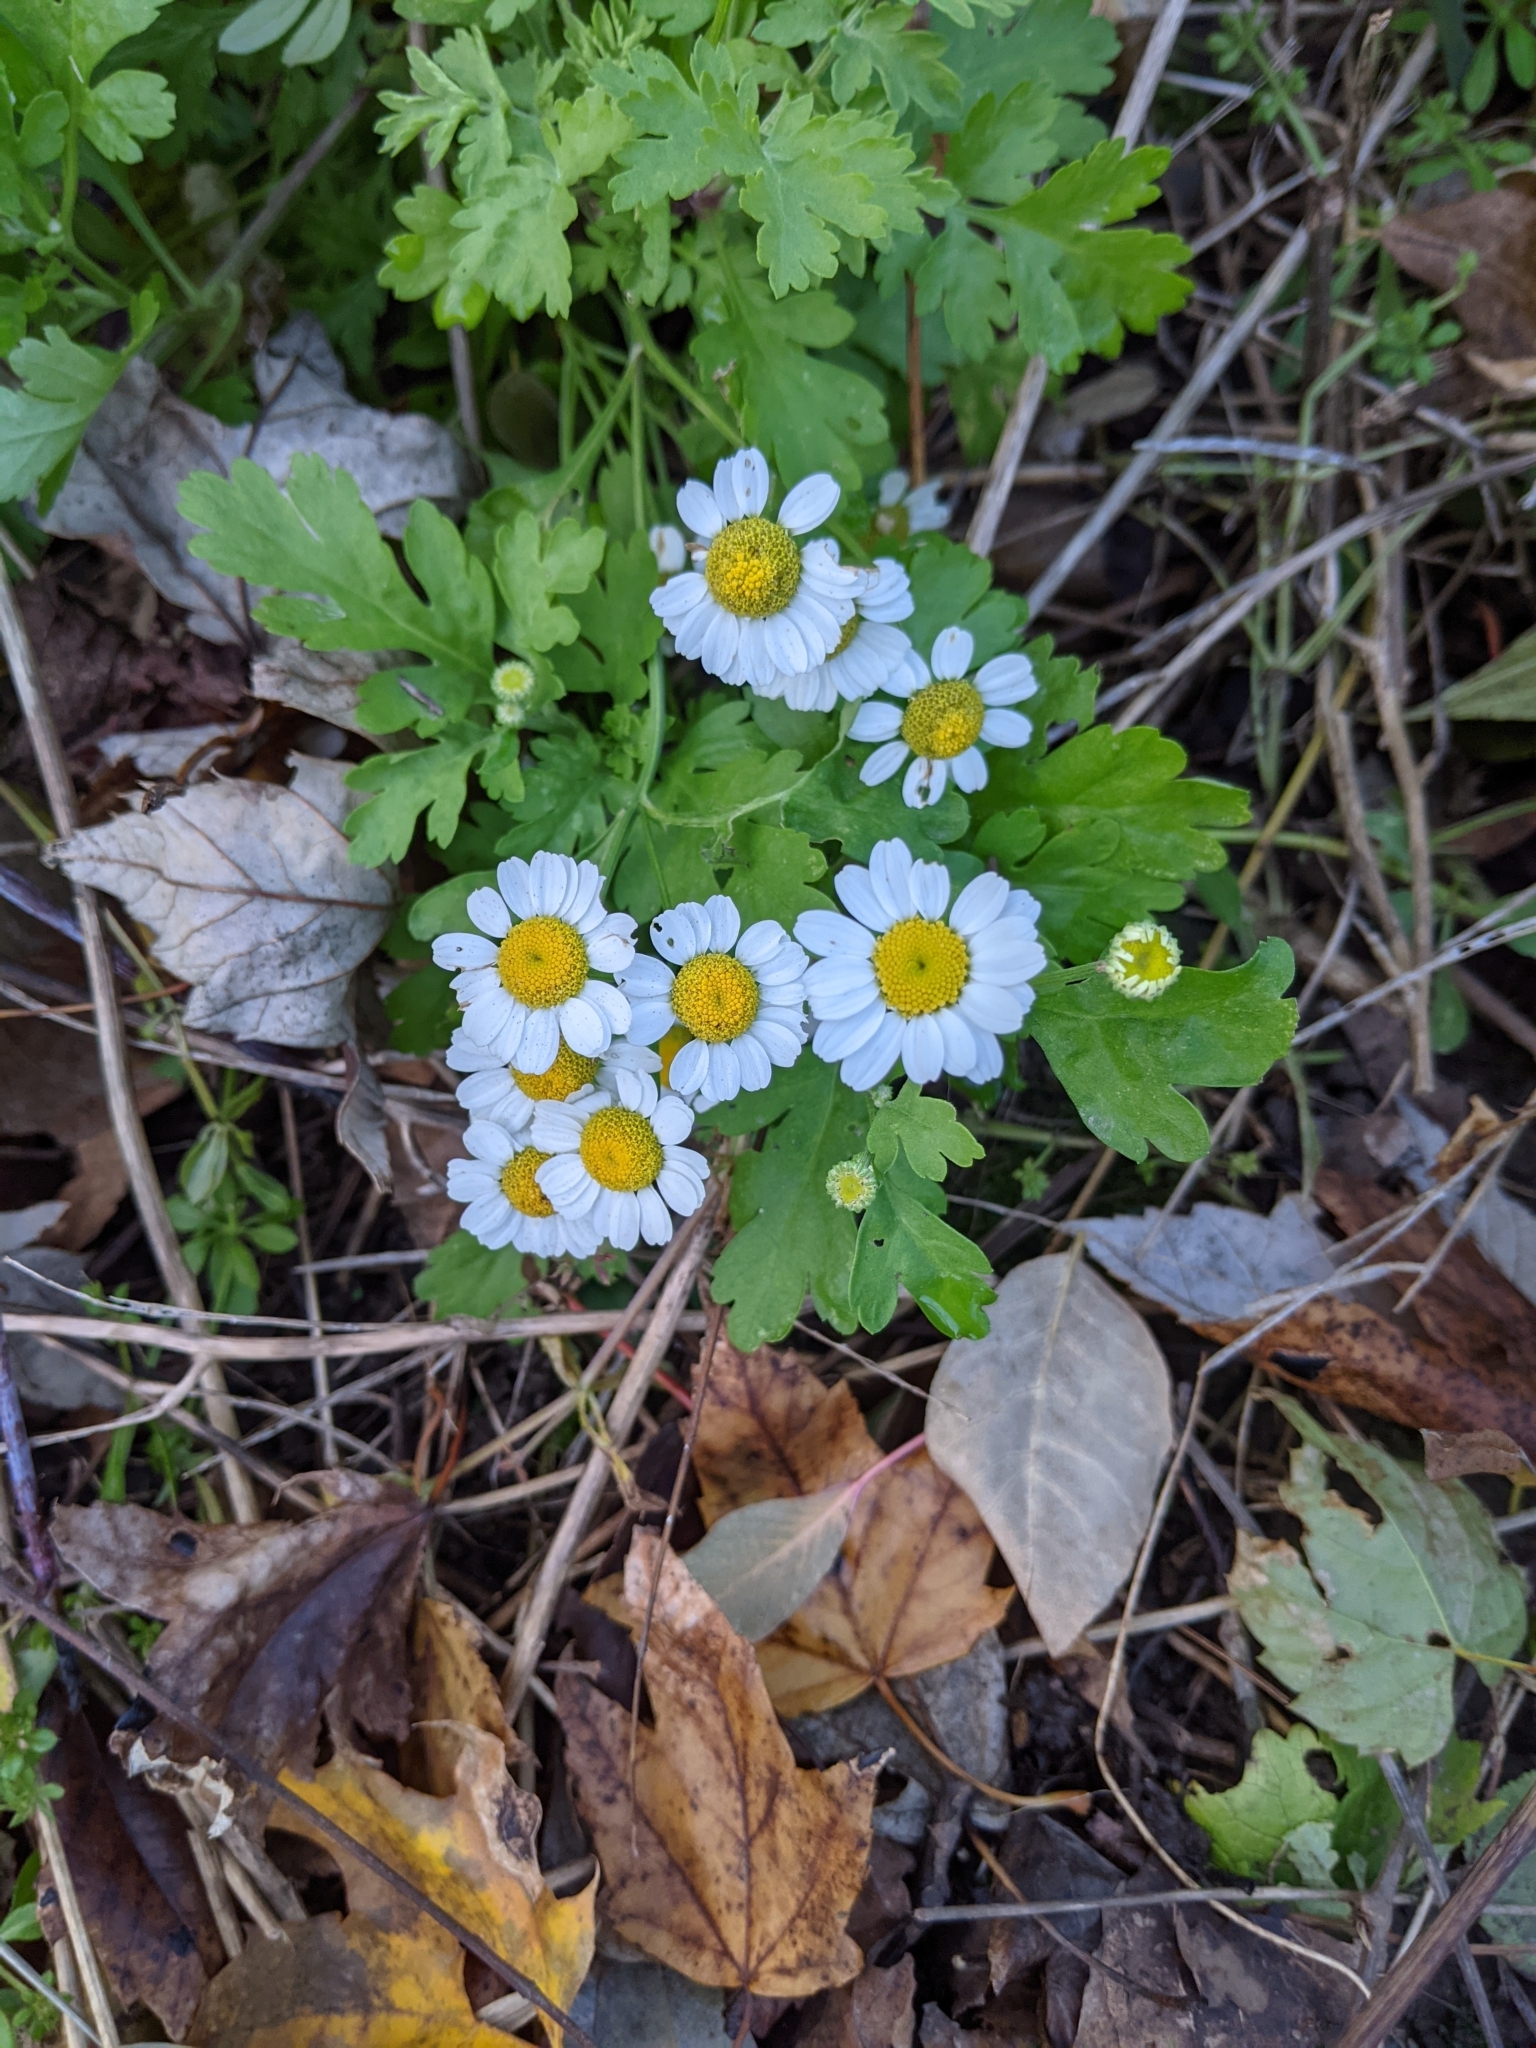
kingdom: Plantae
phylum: Tracheophyta
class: Magnoliopsida
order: Asterales
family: Asteraceae
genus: Tanacetum
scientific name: Tanacetum parthenium
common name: Feverfew
